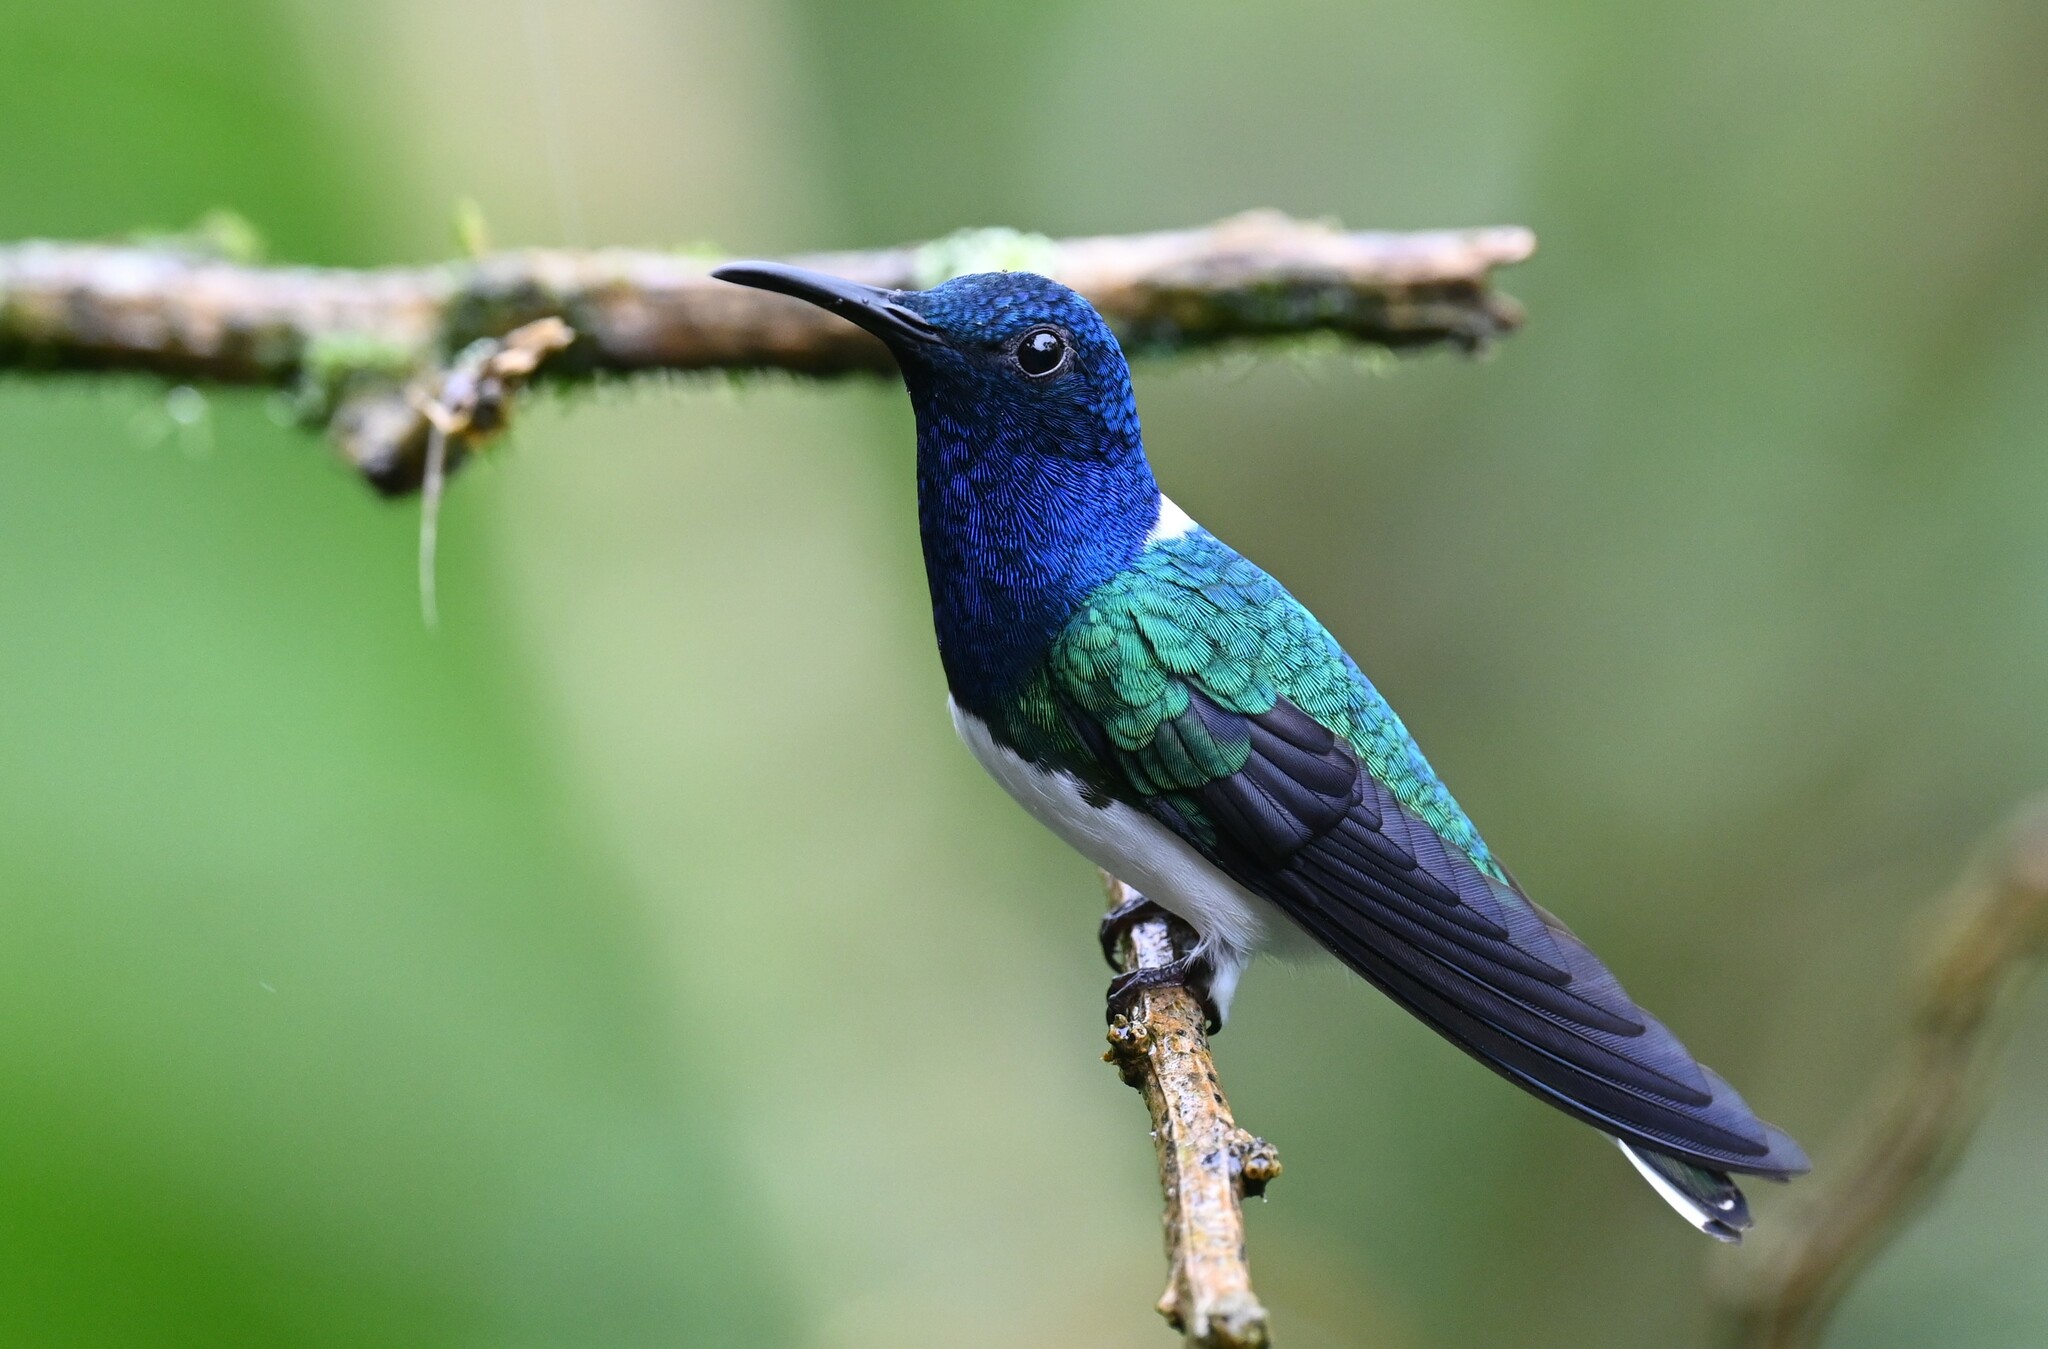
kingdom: Animalia
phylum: Chordata
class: Aves
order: Apodiformes
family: Trochilidae
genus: Florisuga
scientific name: Florisuga mellivora
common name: White-necked jacobin
